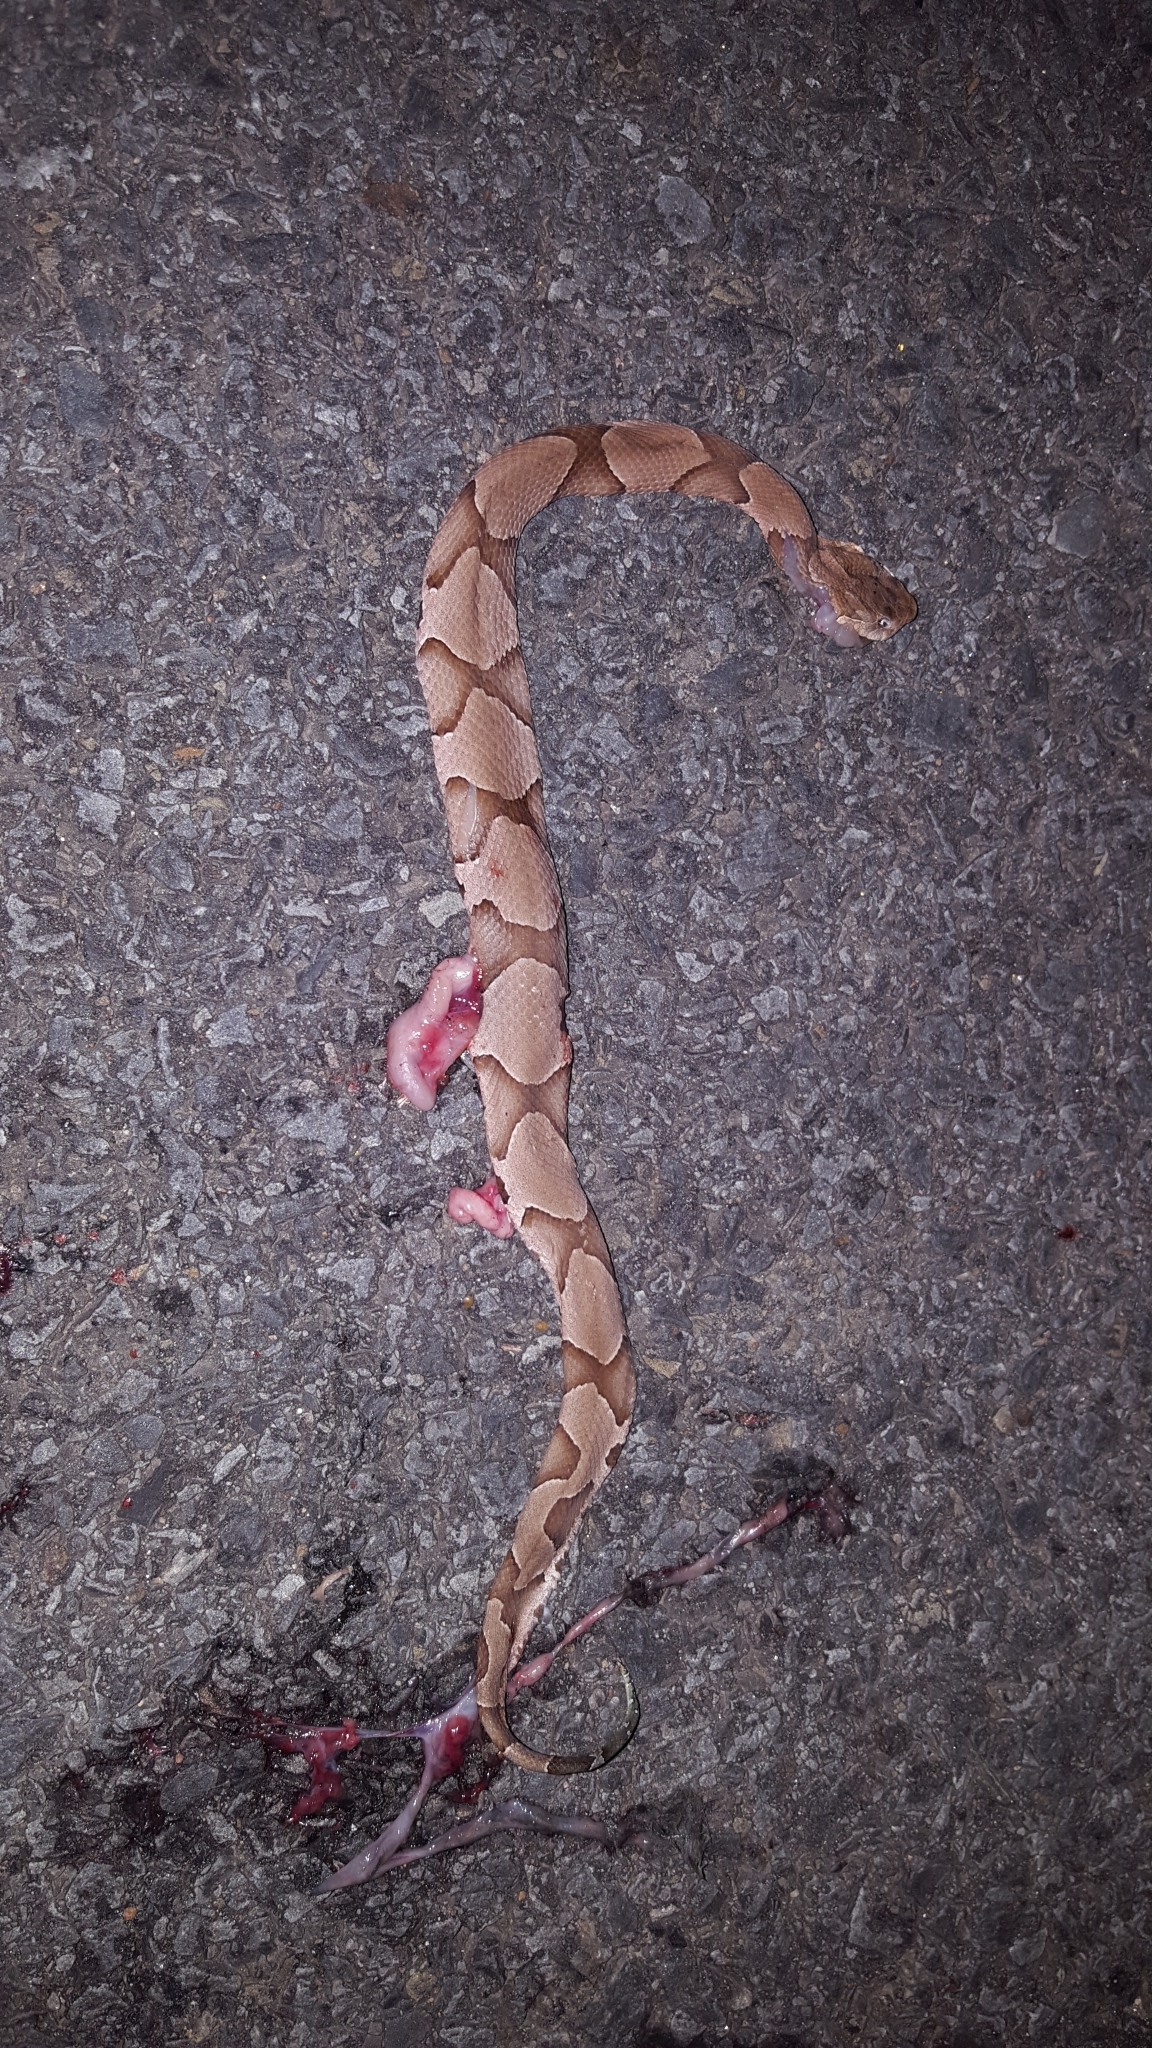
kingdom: Animalia
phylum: Chordata
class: Squamata
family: Viperidae
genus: Agkistrodon
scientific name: Agkistrodon contortrix
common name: Northern copperhead
